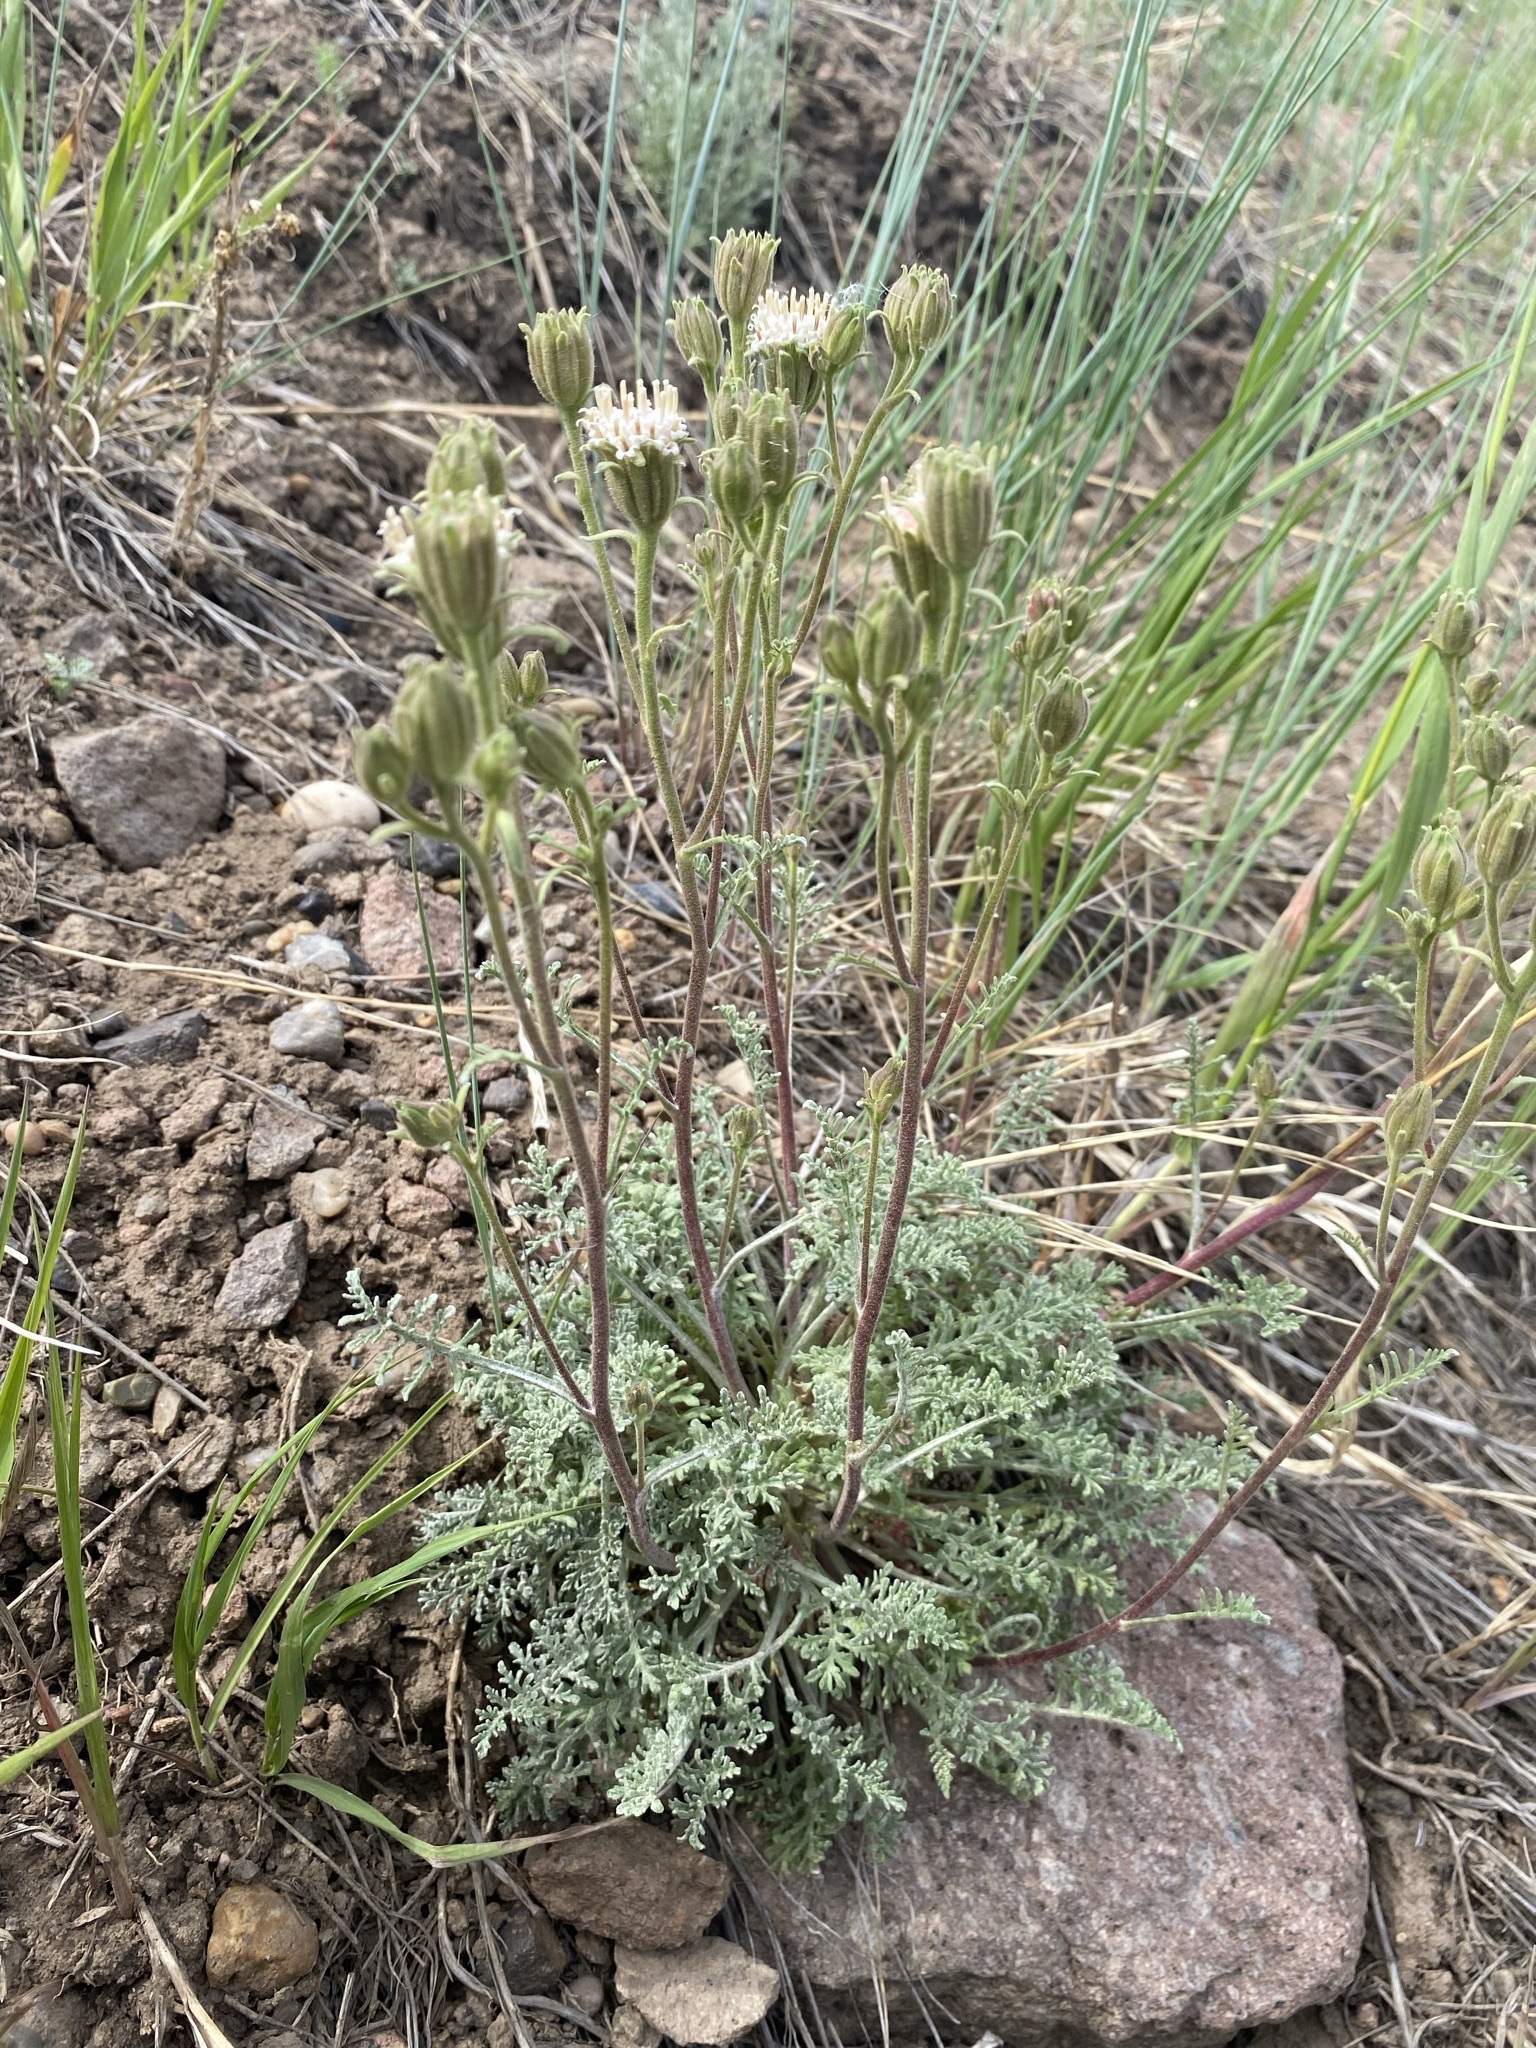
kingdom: Plantae
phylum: Tracheophyta
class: Magnoliopsida
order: Asterales
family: Asteraceae
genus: Chaenactis
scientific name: Chaenactis douglasii
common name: Hoary pincushion
